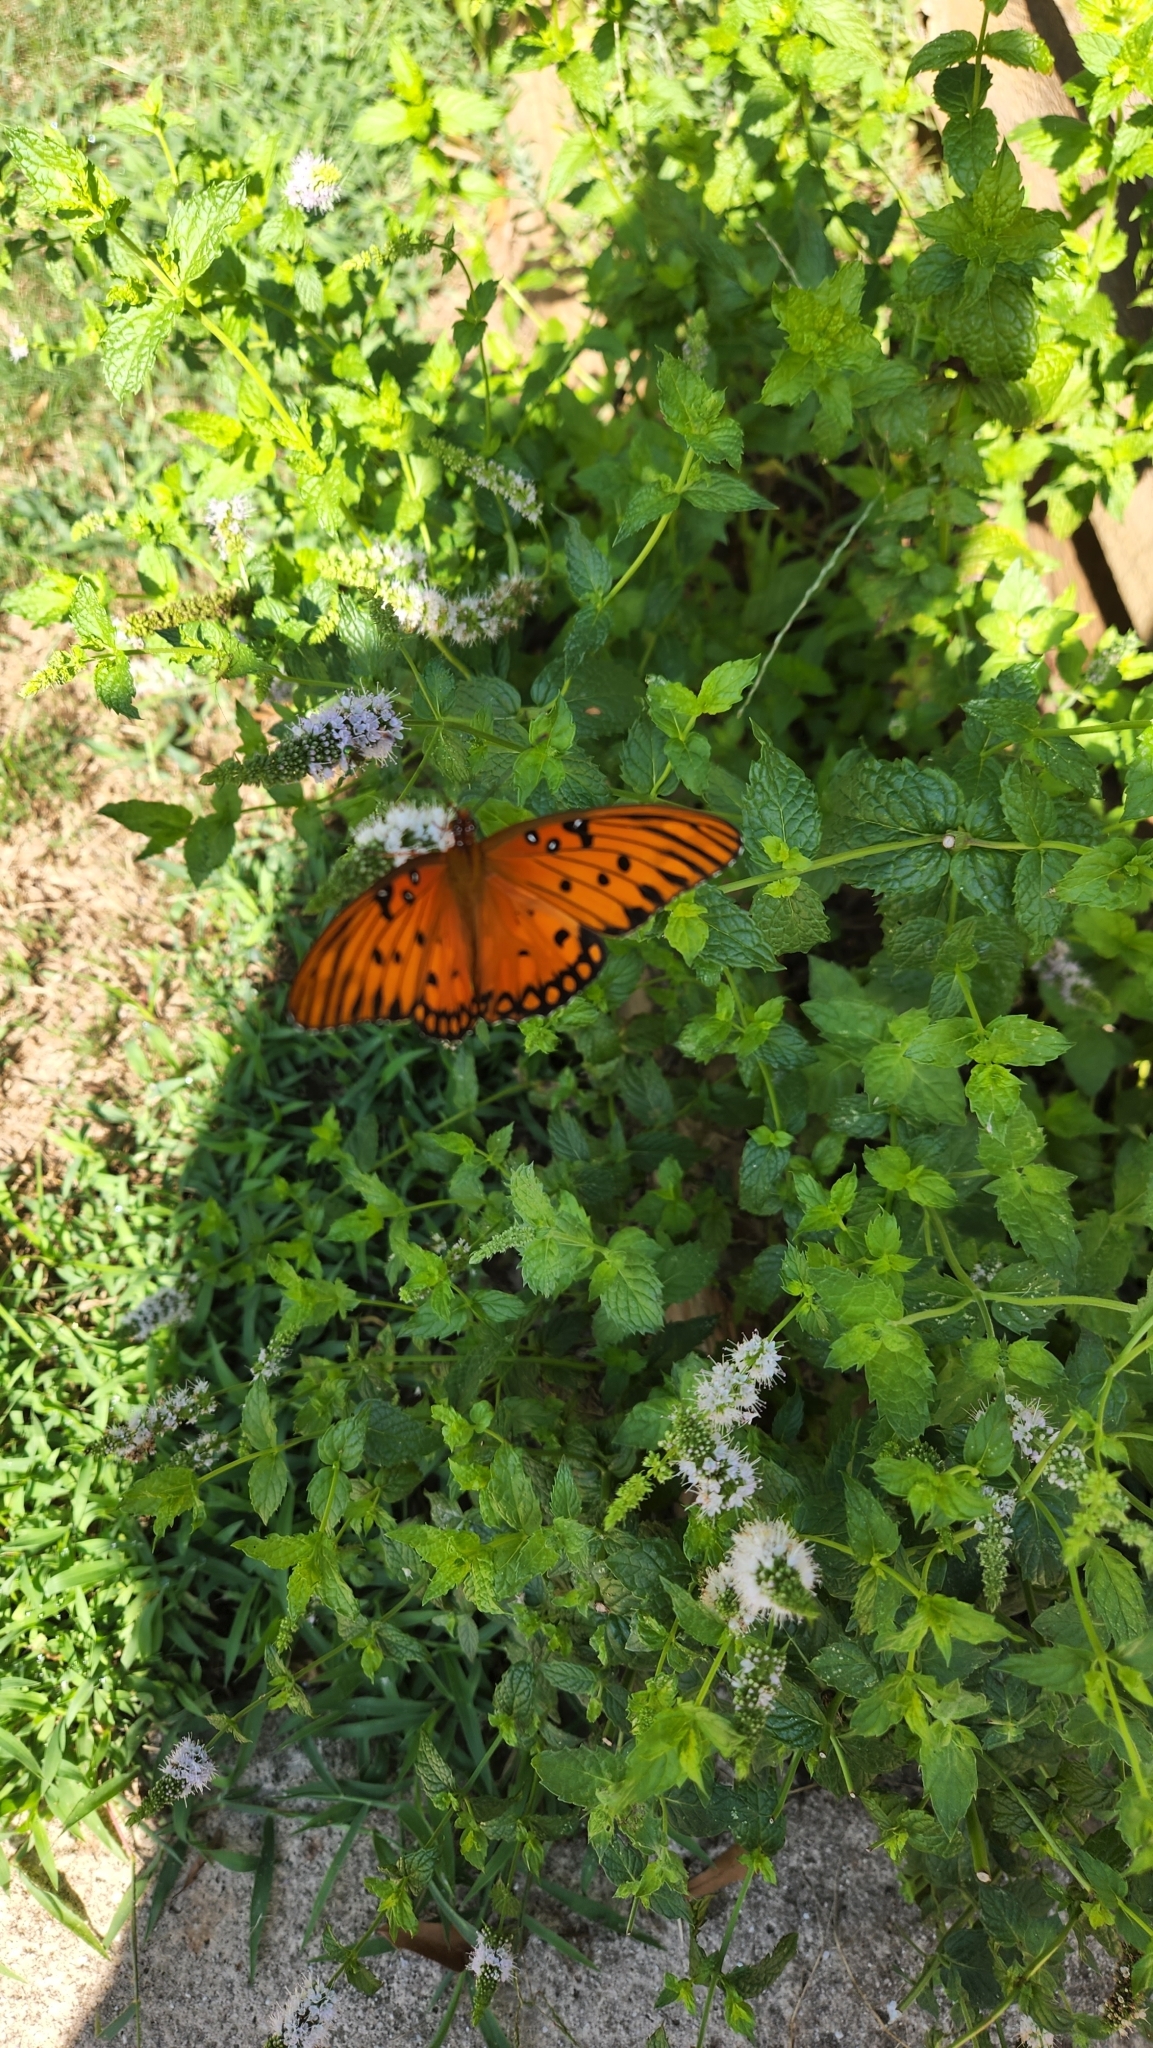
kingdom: Animalia
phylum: Arthropoda
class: Insecta
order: Lepidoptera
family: Nymphalidae
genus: Dione
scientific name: Dione vanillae
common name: Gulf fritillary
